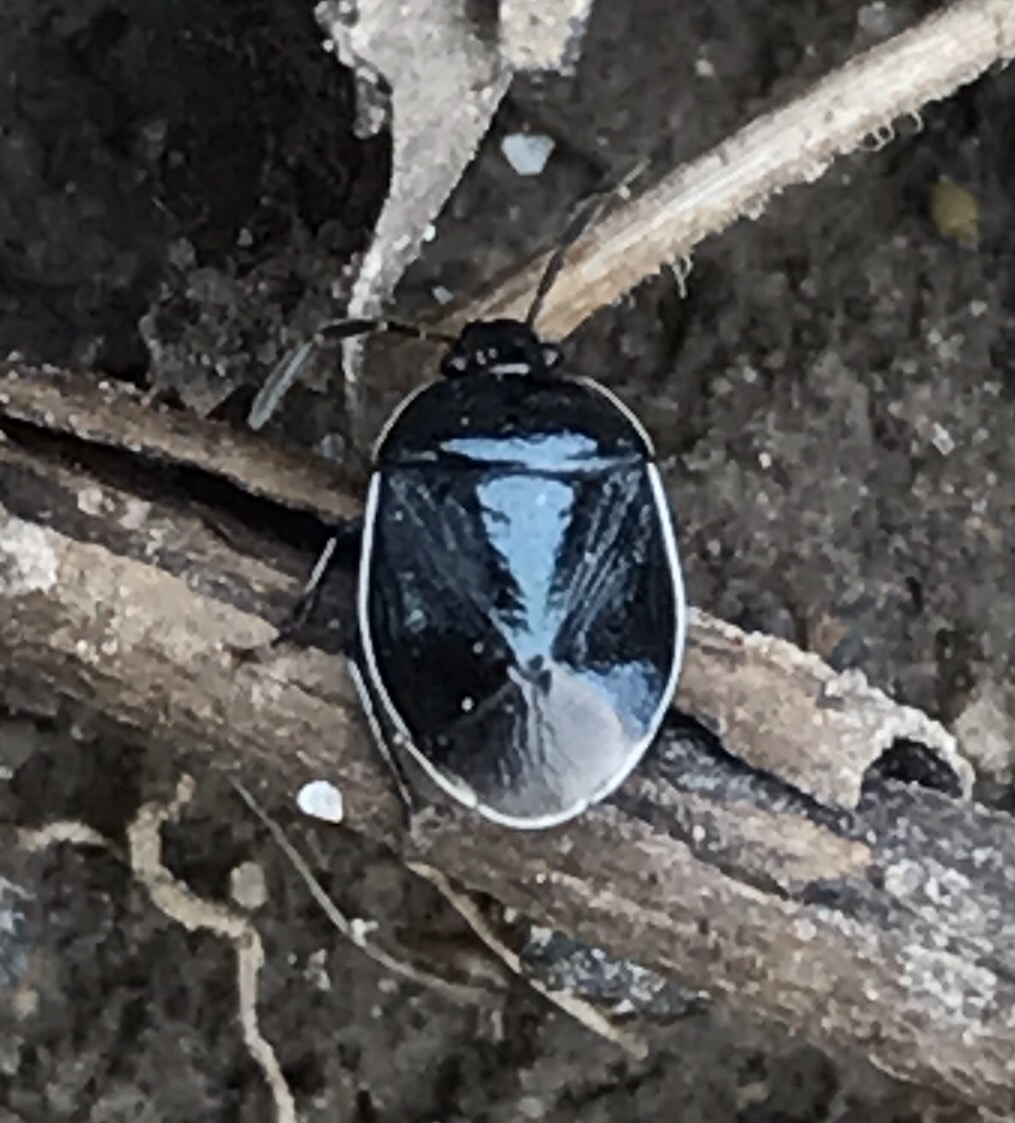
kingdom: Animalia
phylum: Arthropoda
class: Insecta
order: Hemiptera
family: Cydnidae
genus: Sehirus
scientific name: Sehirus cinctus
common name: White-margined burrower bug
